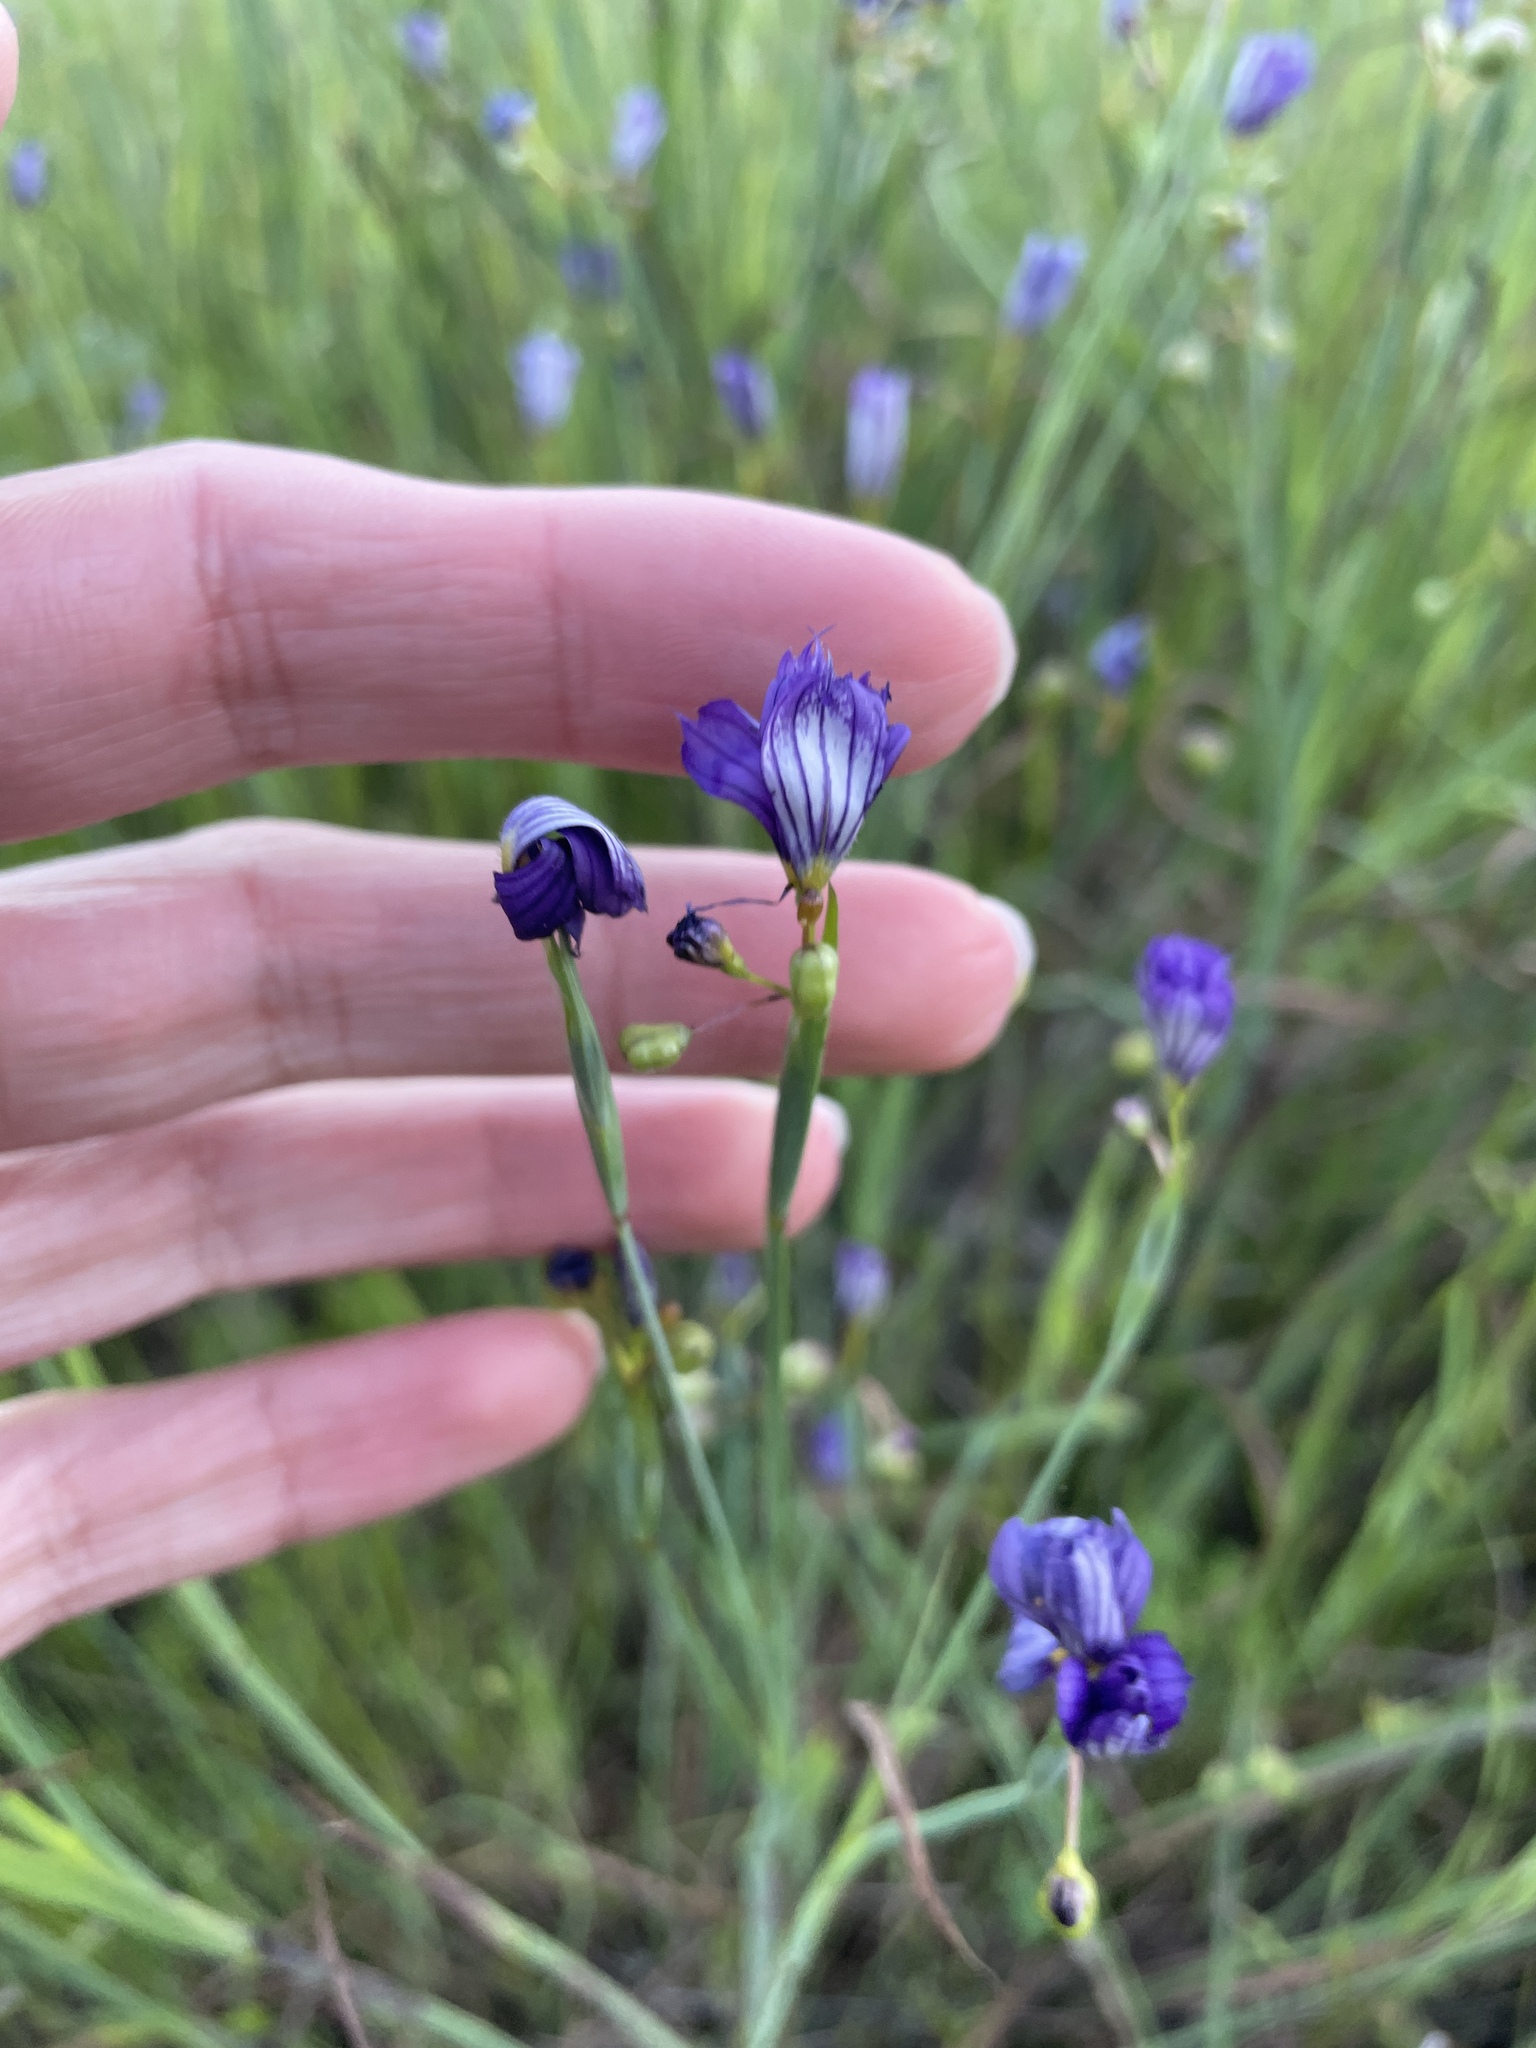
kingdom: Plantae
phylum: Tracheophyta
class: Liliopsida
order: Asparagales
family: Iridaceae
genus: Sisyrinchium
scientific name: Sisyrinchium bellum
